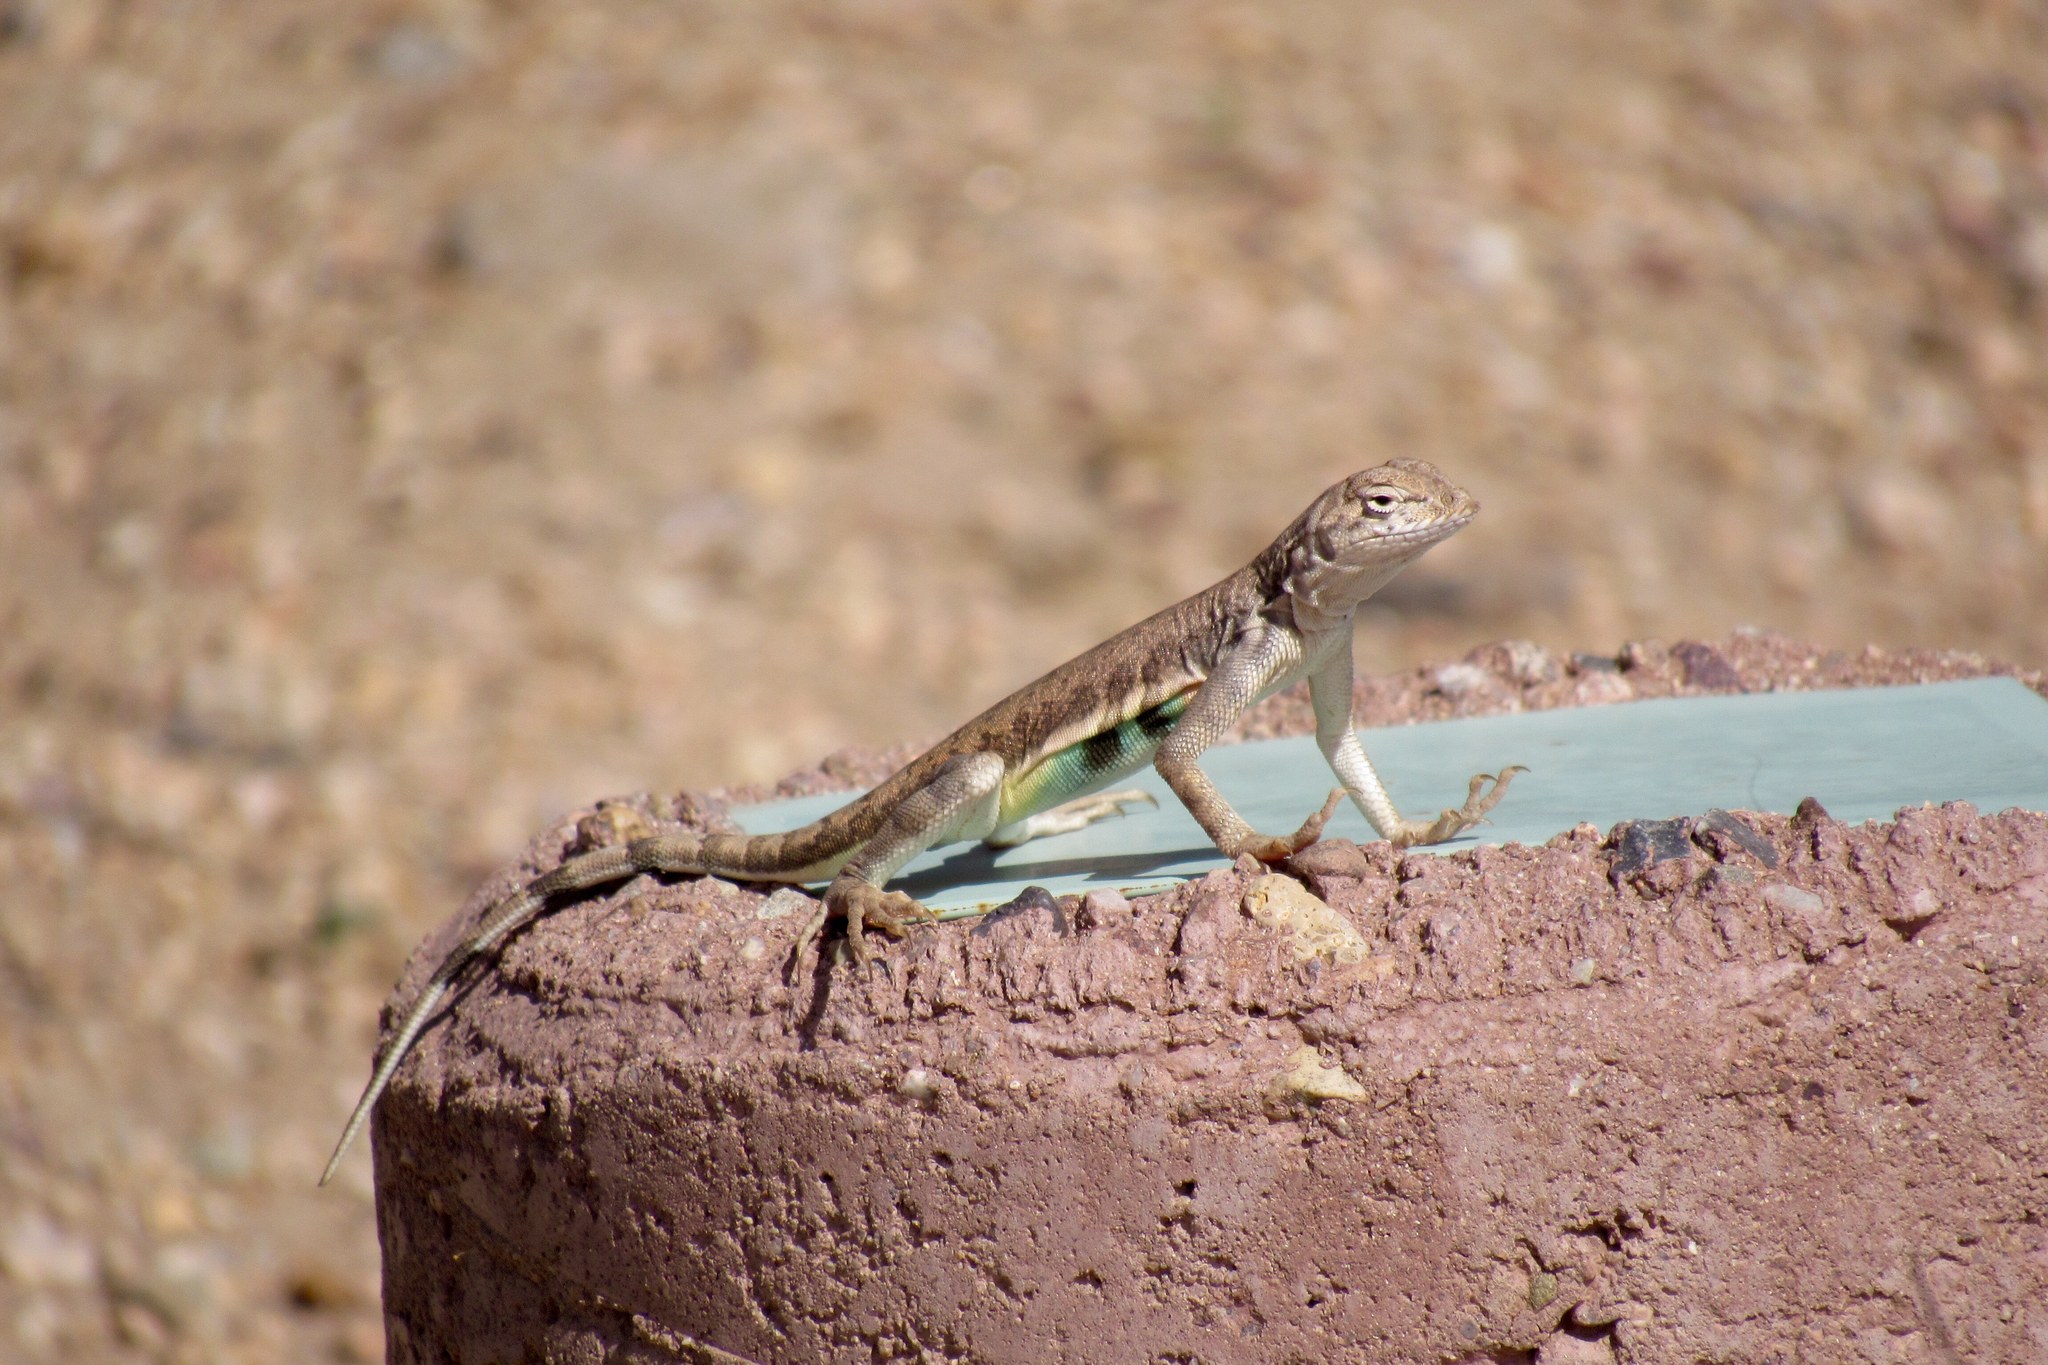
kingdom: Animalia
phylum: Chordata
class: Squamata
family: Phrynosomatidae
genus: Callisaurus
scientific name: Callisaurus draconoides
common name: Zebra-tailed lizard
